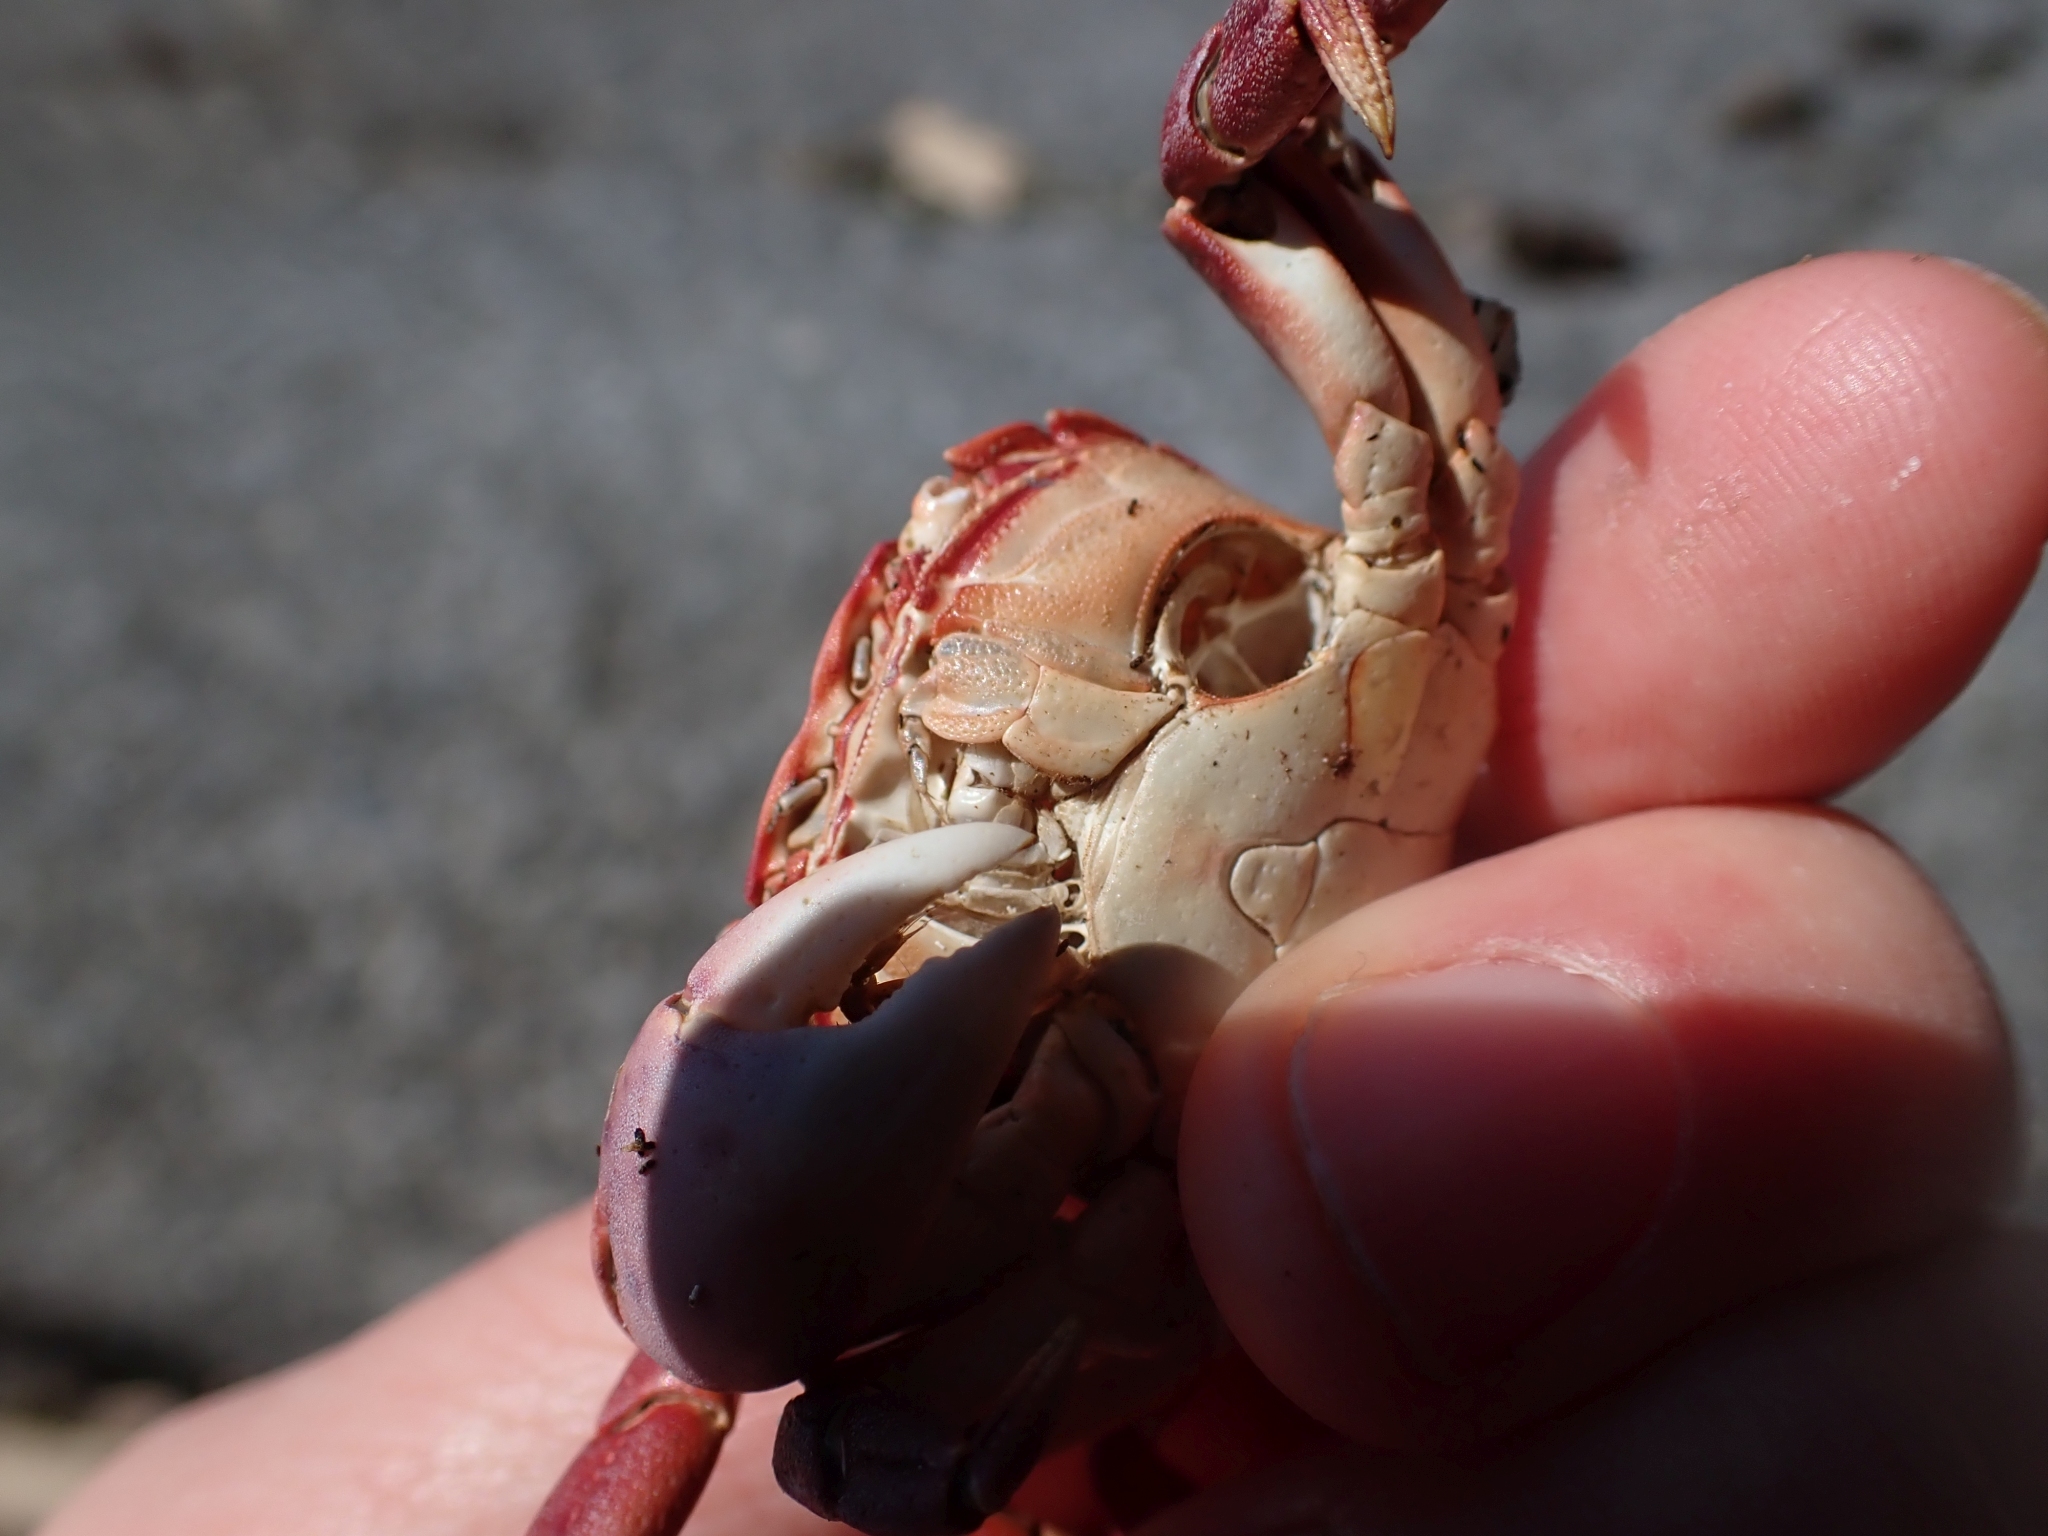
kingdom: Animalia
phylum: Arthropoda
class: Malacostraca
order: Decapoda
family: Varunidae
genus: Hemigrapsus
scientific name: Hemigrapsus nudus
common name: Purple shore crab
